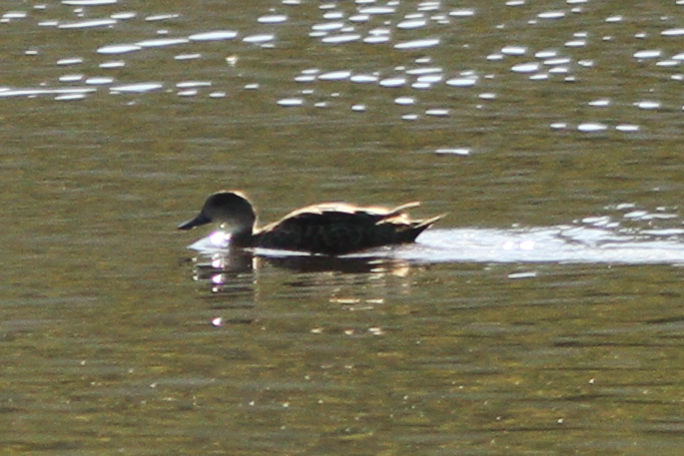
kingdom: Animalia
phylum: Chordata
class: Aves
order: Anseriformes
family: Anatidae
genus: Anas
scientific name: Anas gracilis
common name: Grey teal
